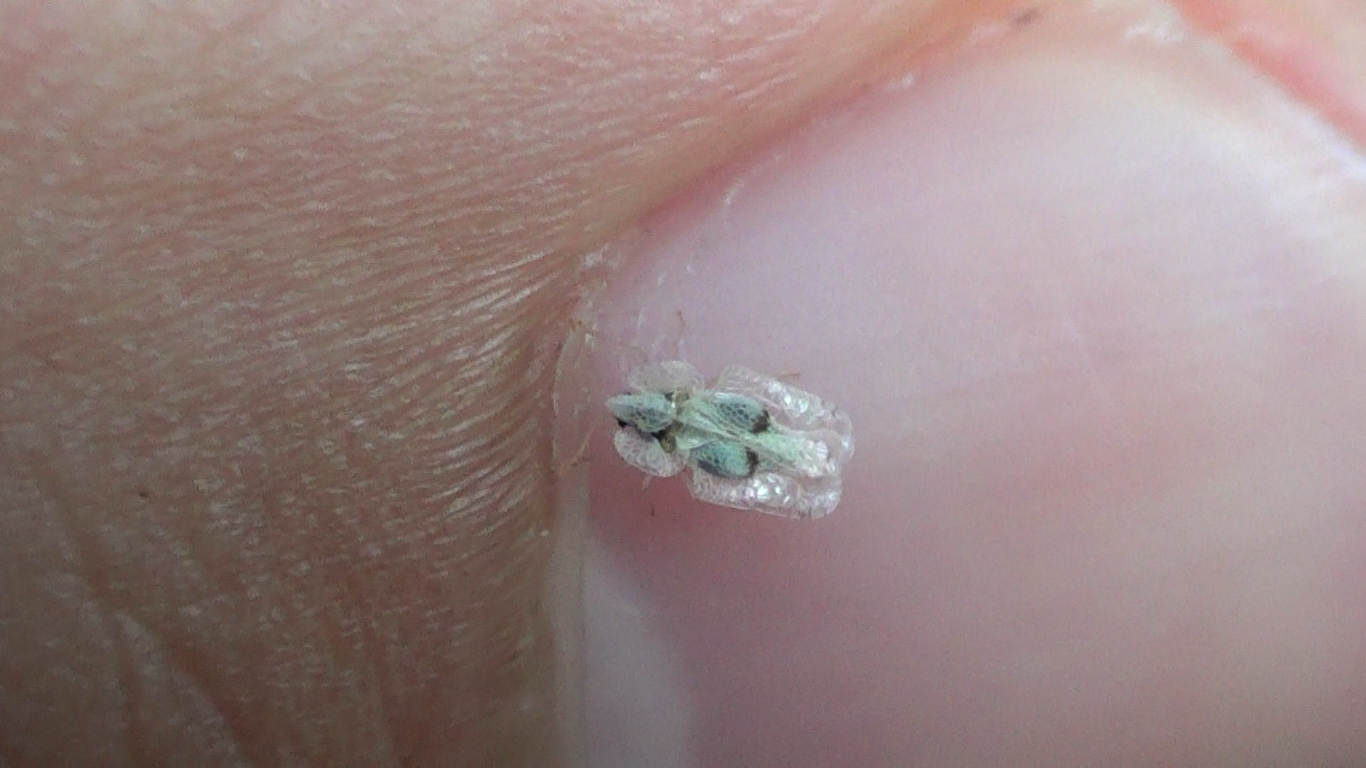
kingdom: Animalia
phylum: Arthropoda
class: Insecta
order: Hemiptera
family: Tingidae
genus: Corythucha
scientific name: Corythucha ciliata
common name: Sycamore lace bug
